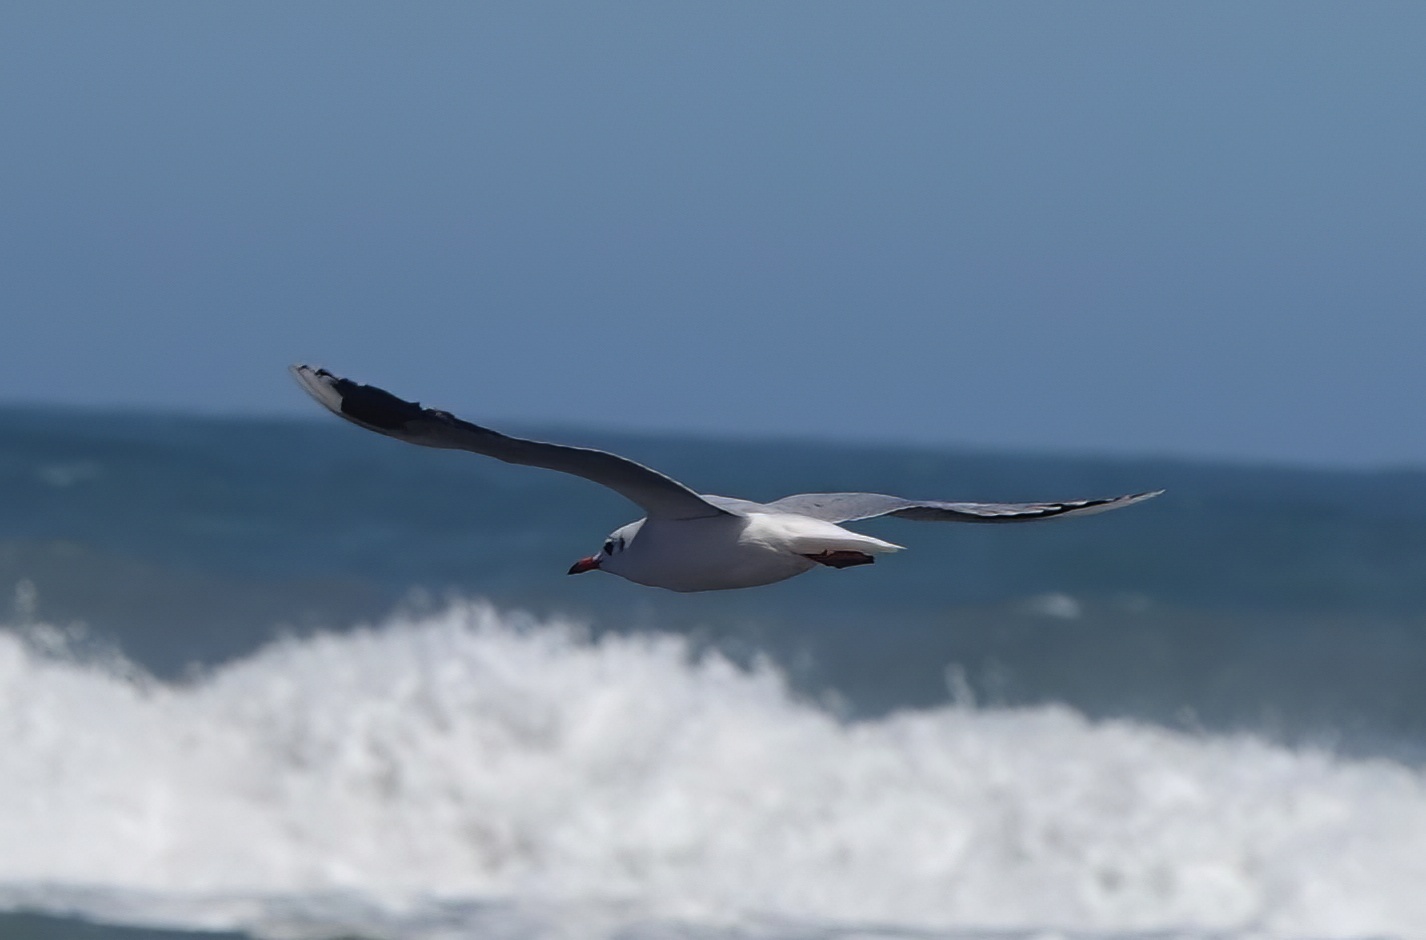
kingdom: Animalia
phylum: Chordata
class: Aves
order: Charadriiformes
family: Laridae
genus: Chroicocephalus
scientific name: Chroicocephalus maculipennis
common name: Brown-hooded gull
